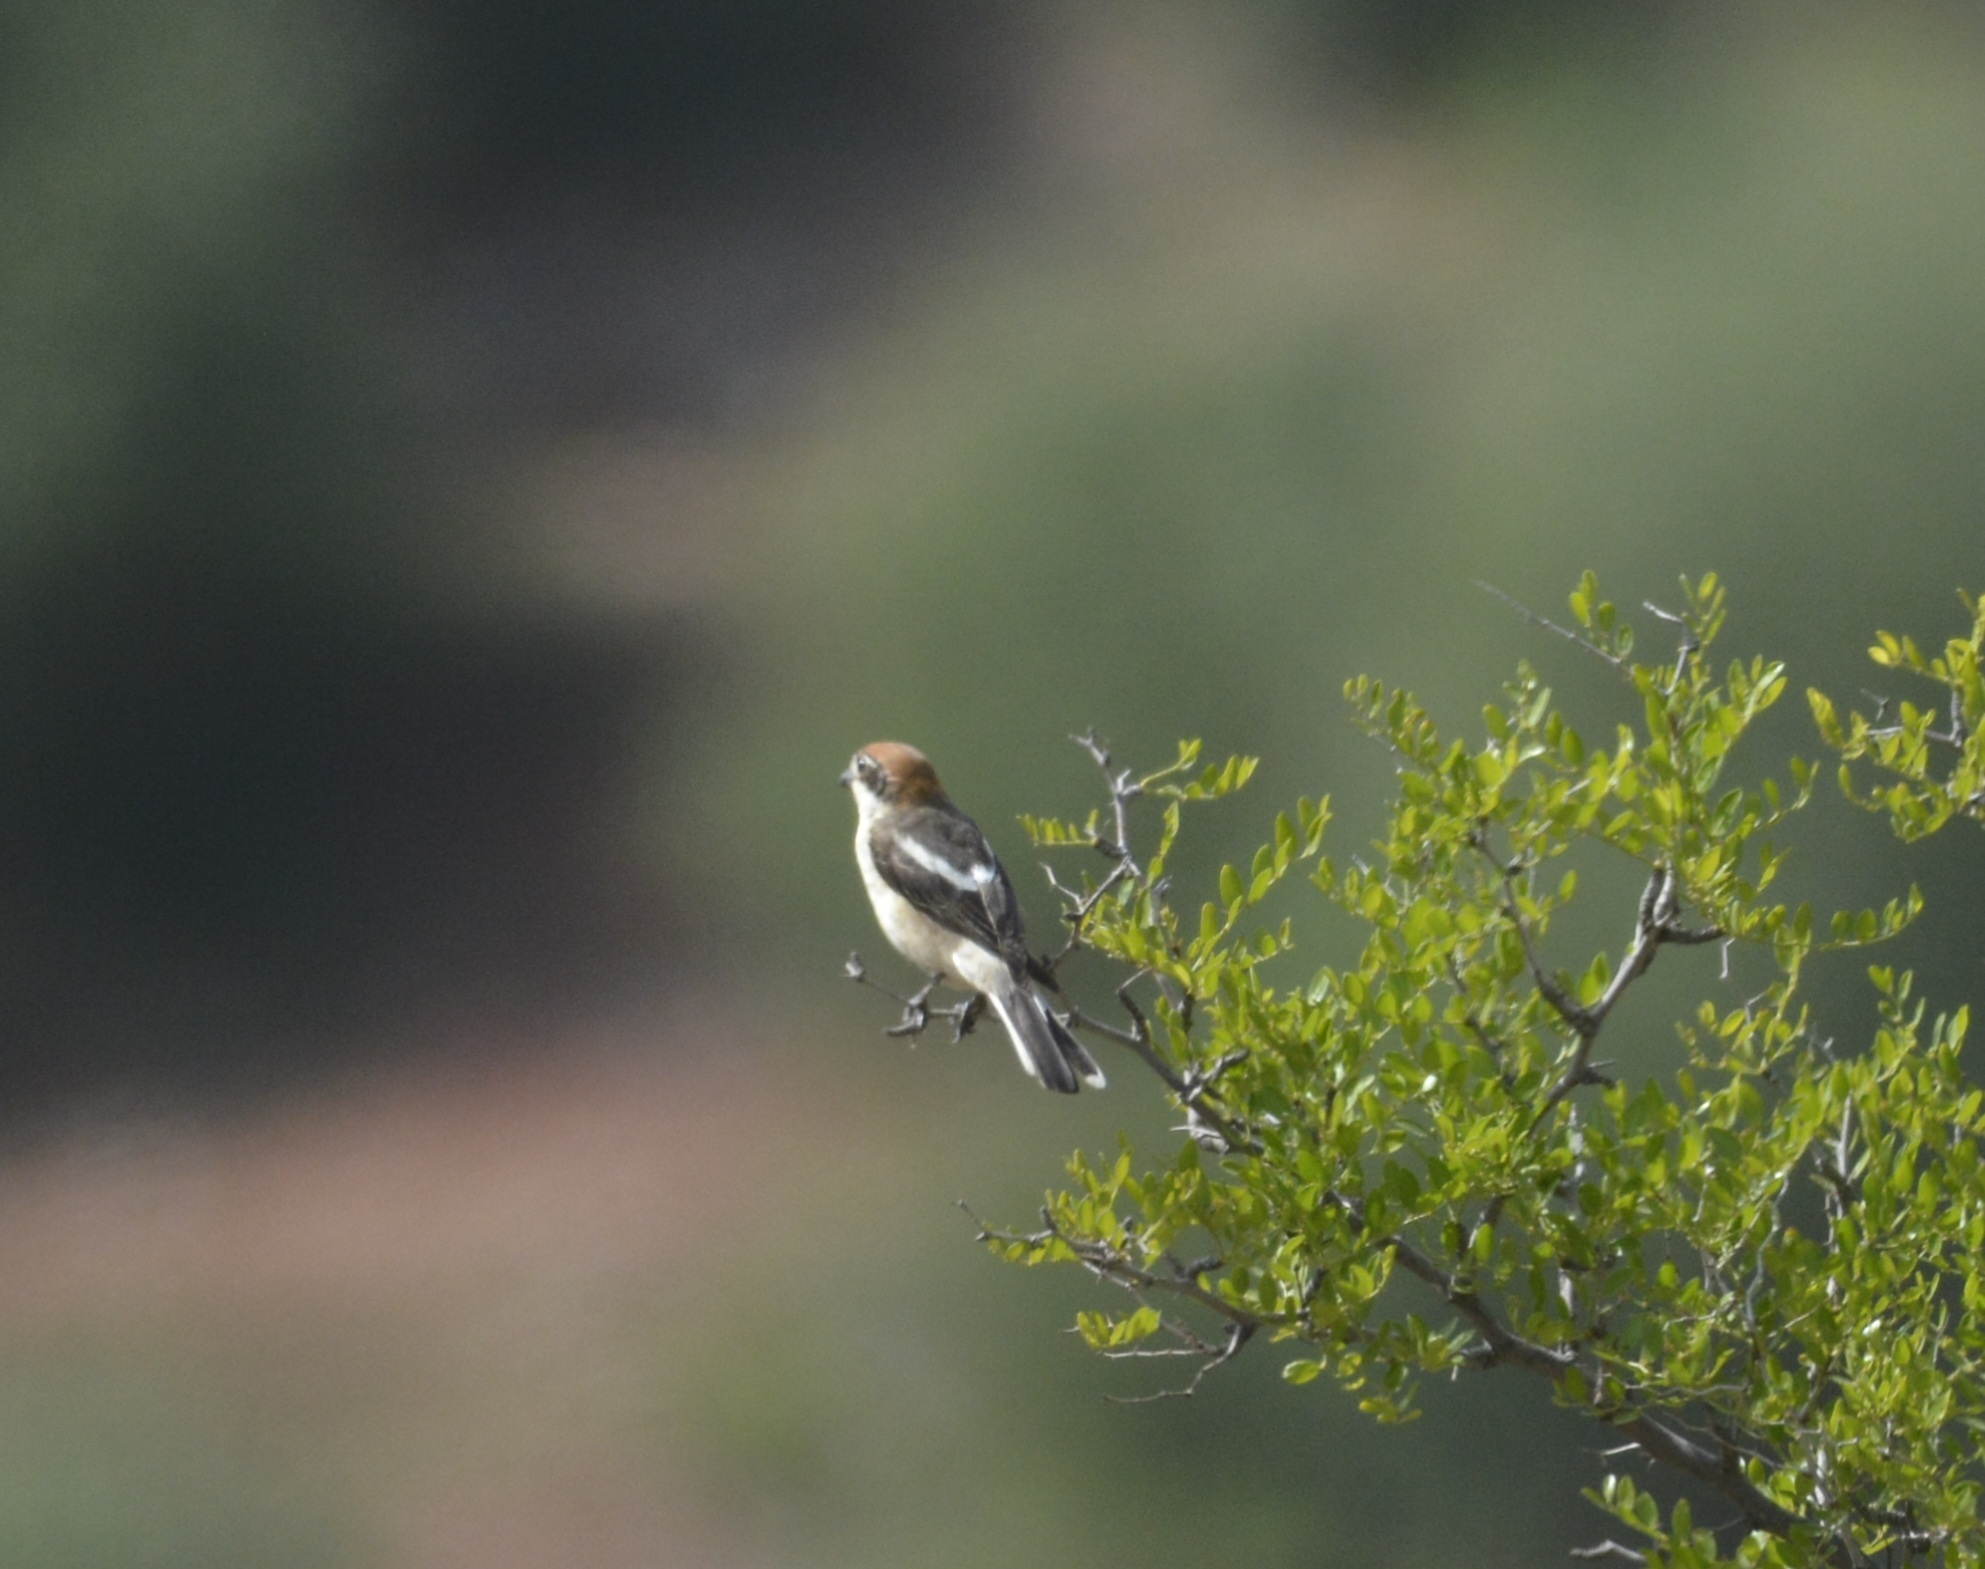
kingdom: Animalia
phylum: Chordata
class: Aves
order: Passeriformes
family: Laniidae
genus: Lanius
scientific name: Lanius senator
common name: Woodchat shrike
